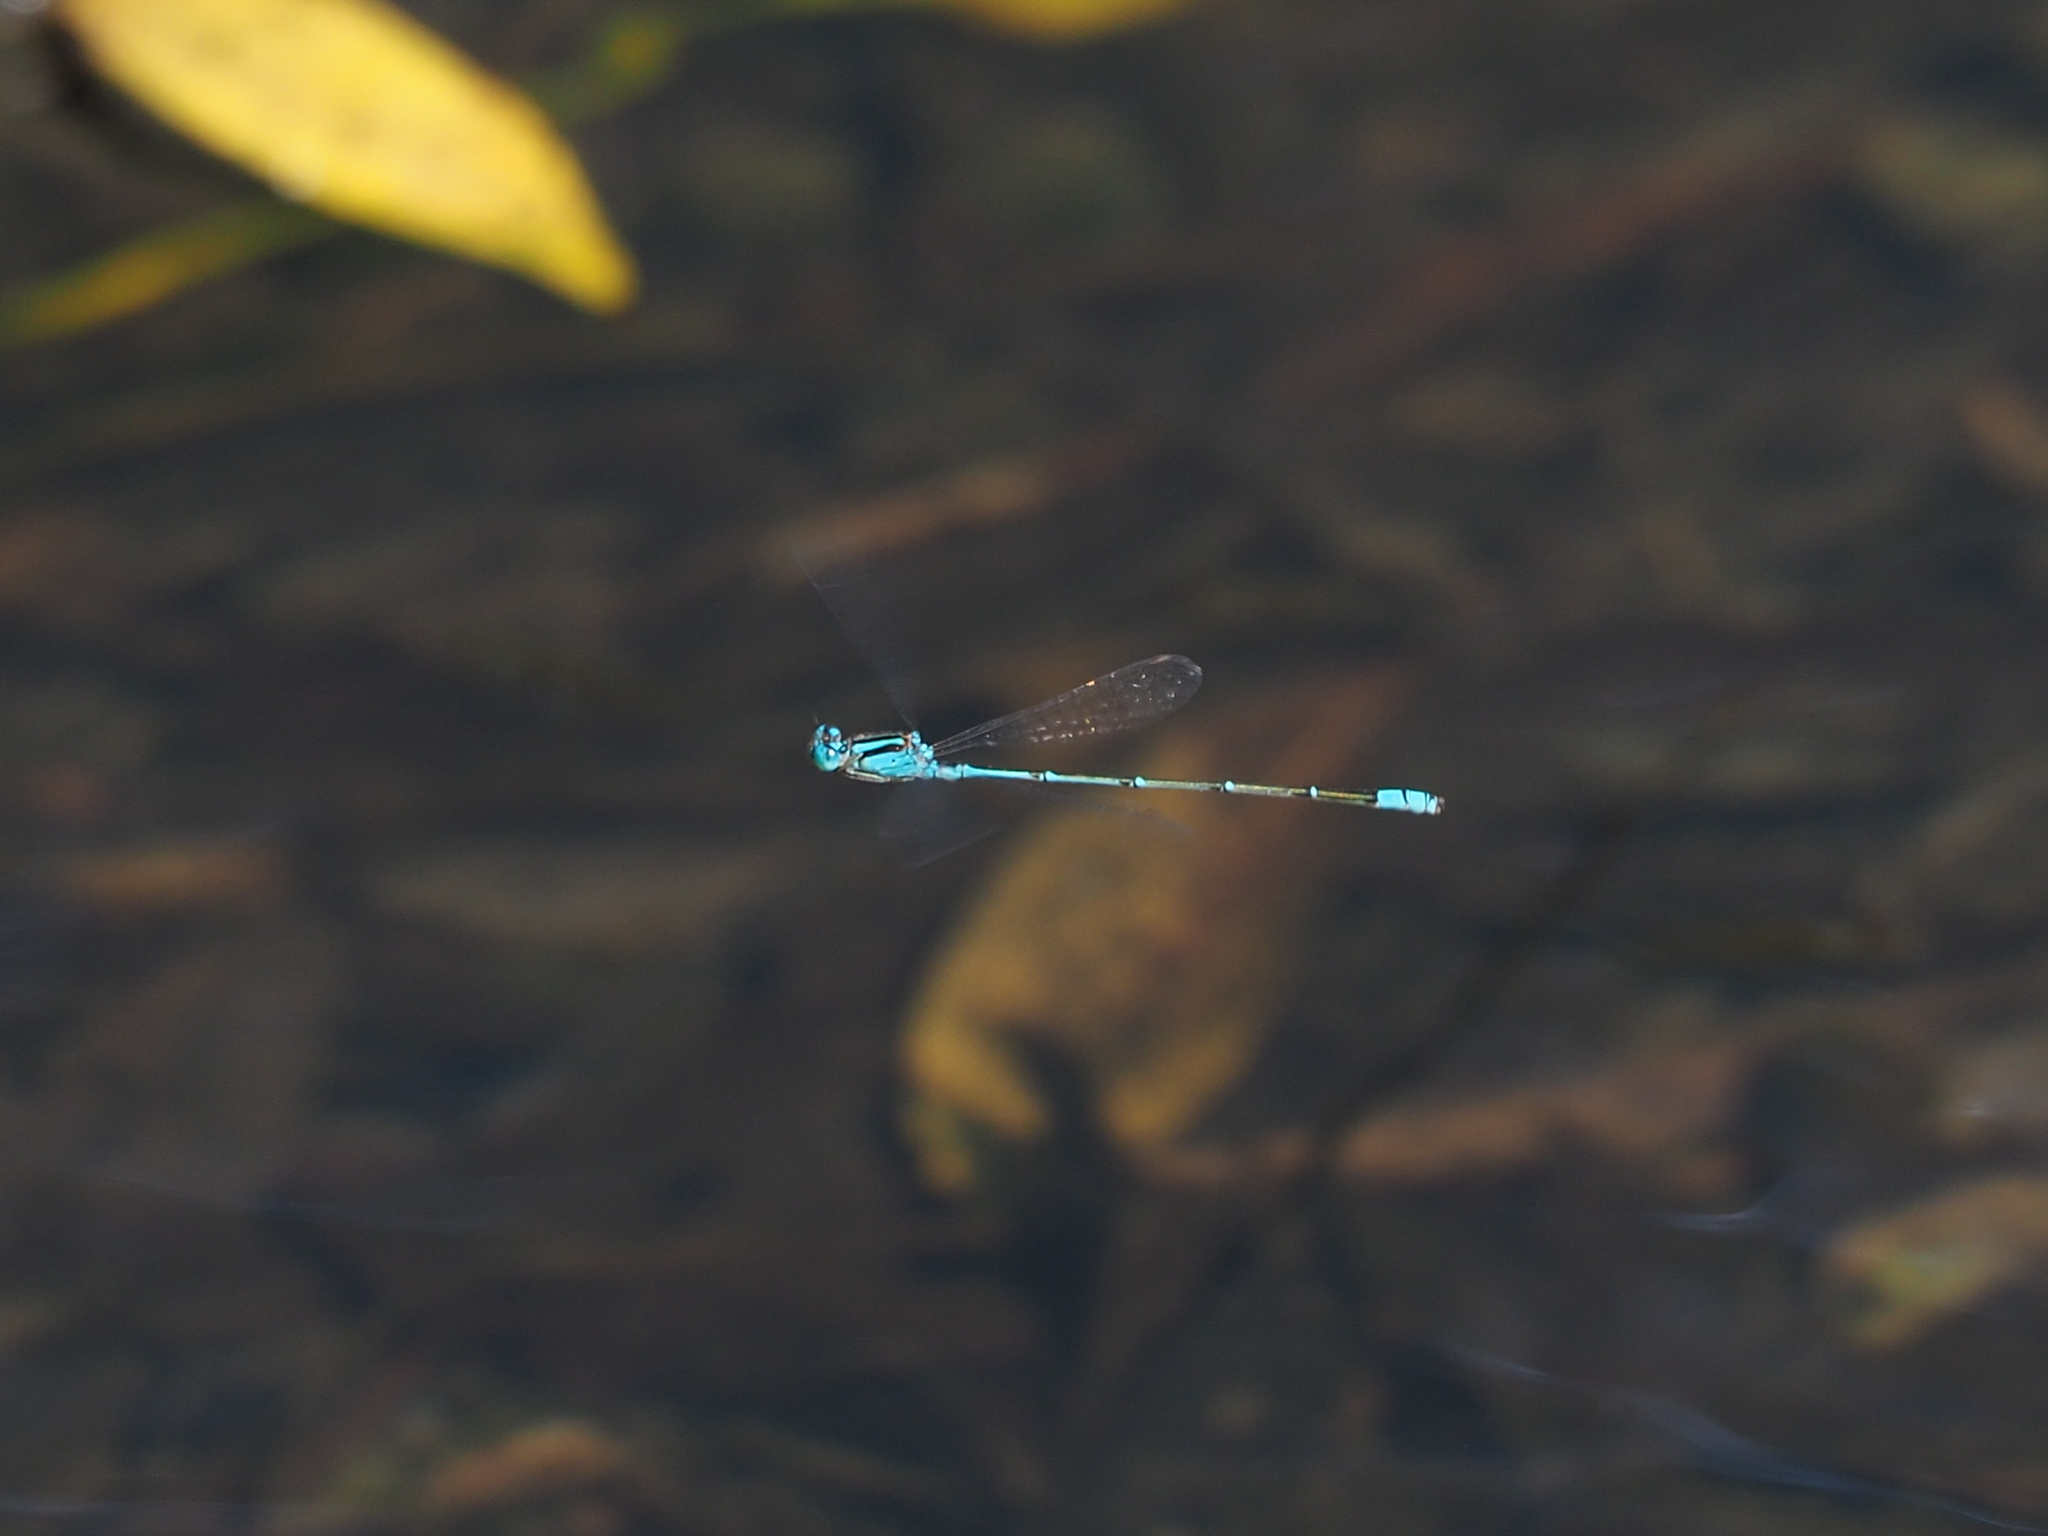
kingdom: Animalia
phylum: Arthropoda
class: Insecta
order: Odonata
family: Coenagrionidae
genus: Pseudagrion
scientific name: Pseudagrion microcephalum
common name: Blue riverdamsel
